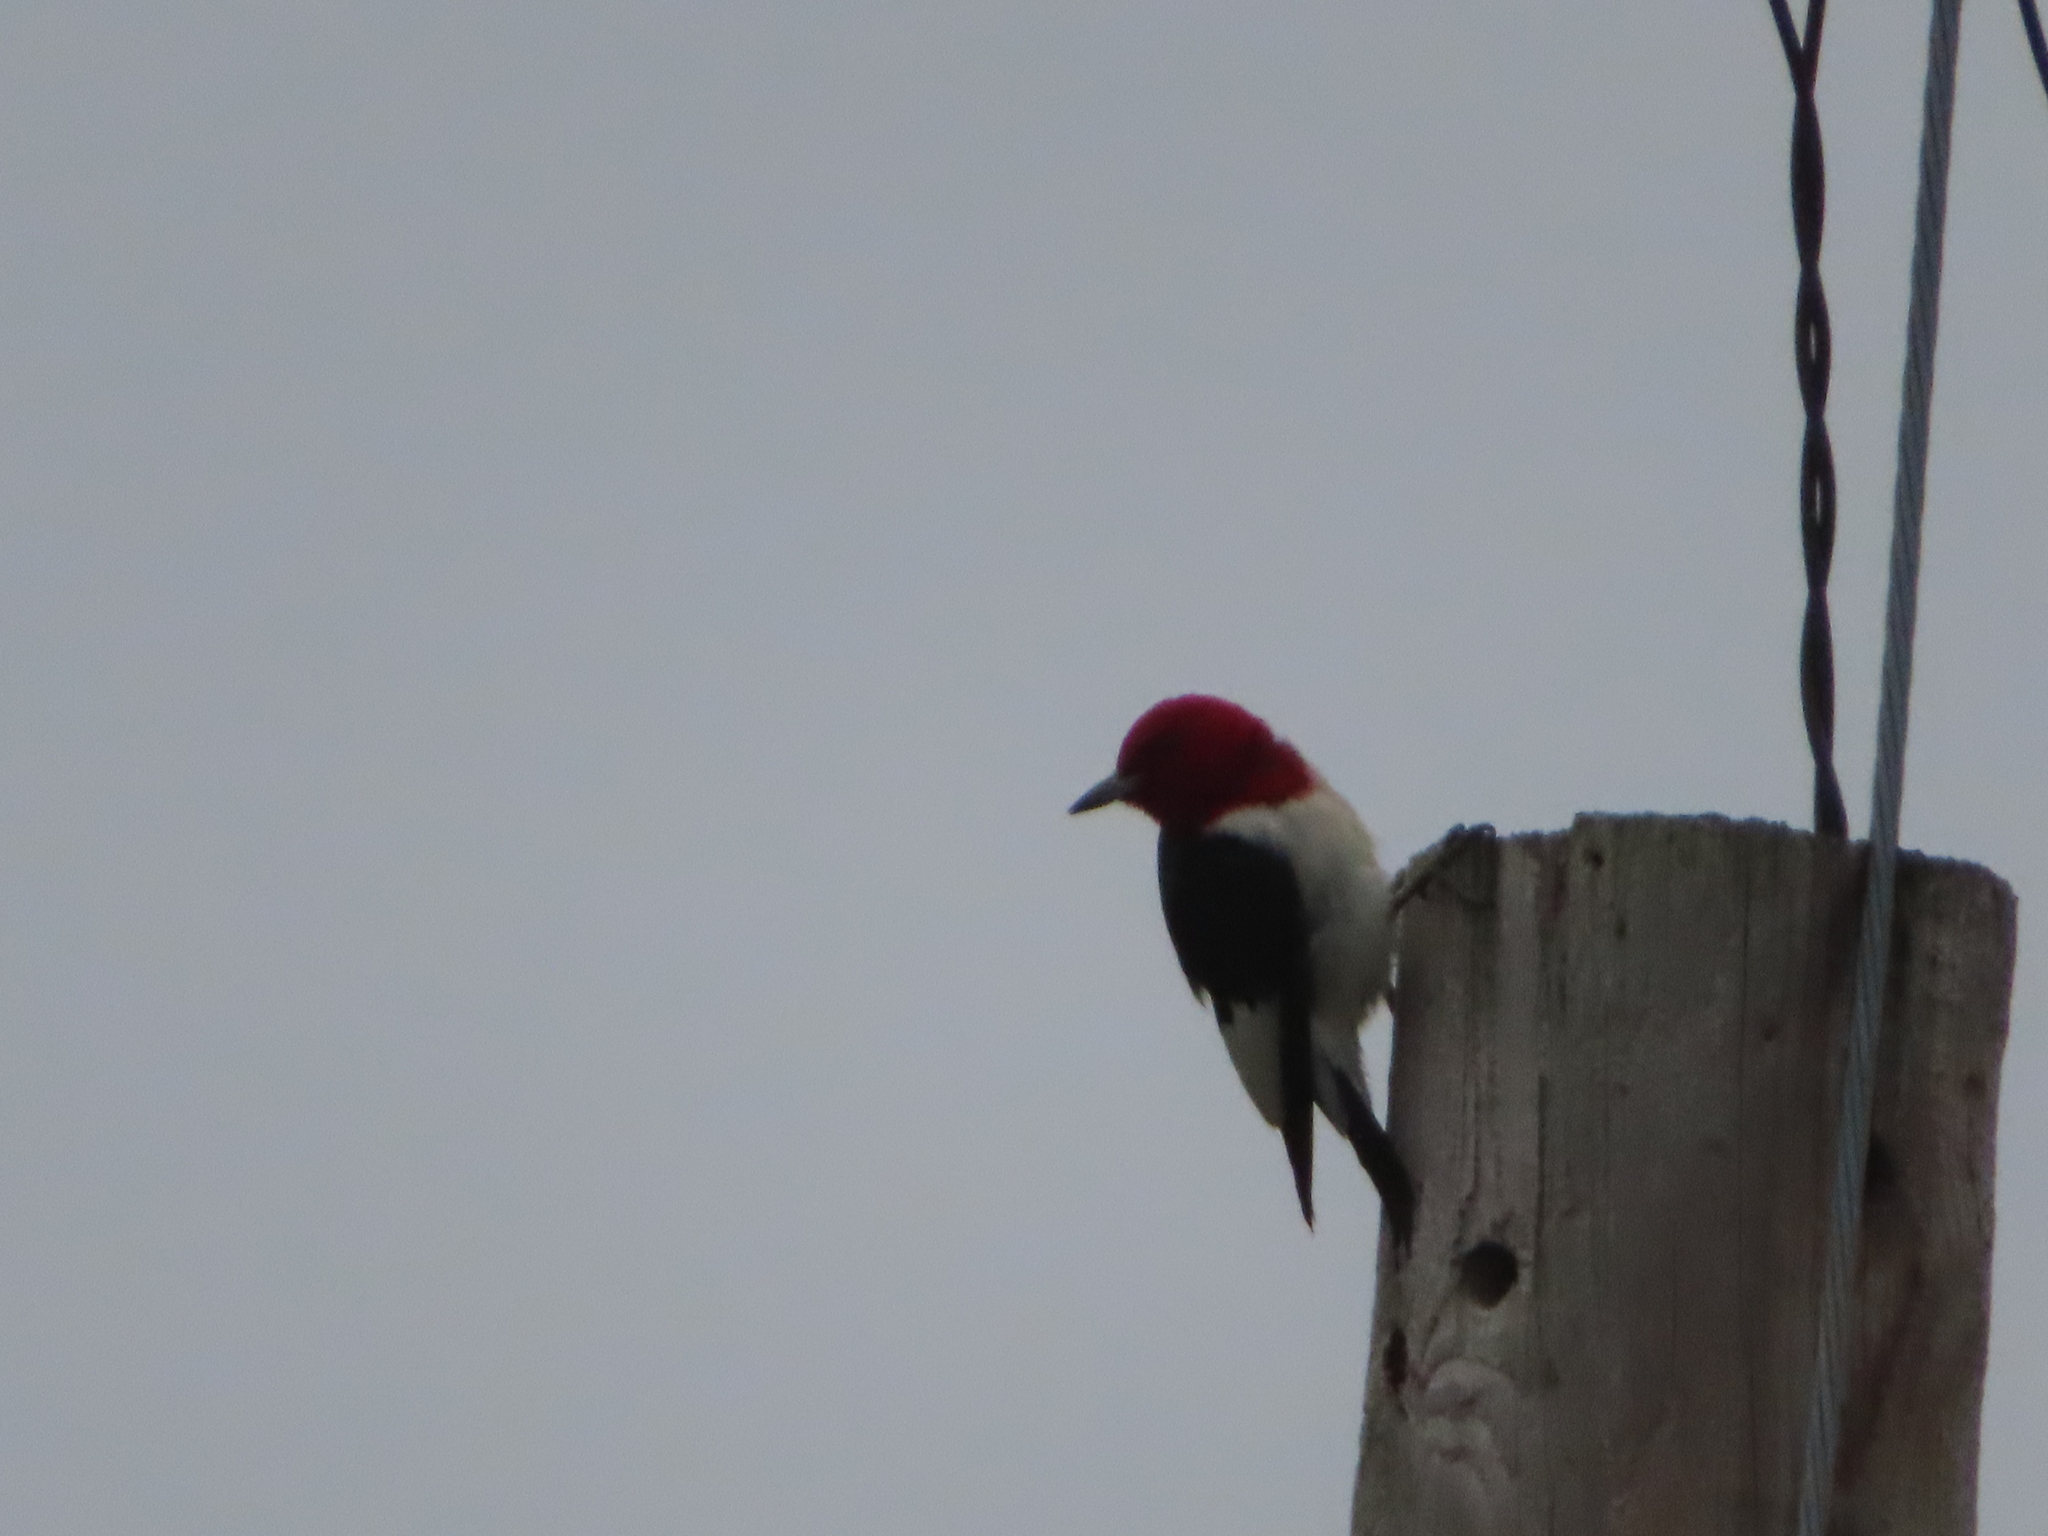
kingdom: Animalia
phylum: Chordata
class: Aves
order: Piciformes
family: Picidae
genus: Melanerpes
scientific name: Melanerpes erythrocephalus
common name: Red-headed woodpecker
